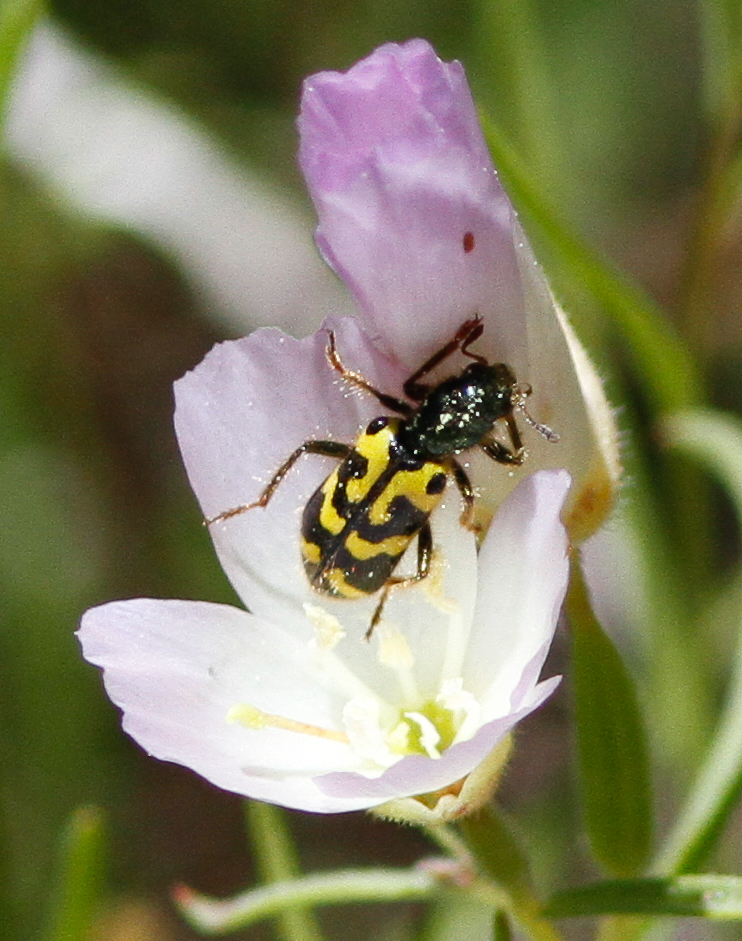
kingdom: Animalia
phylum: Arthropoda
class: Insecta
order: Coleoptera
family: Cleridae
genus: Trichodes
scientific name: Trichodes ornatus
